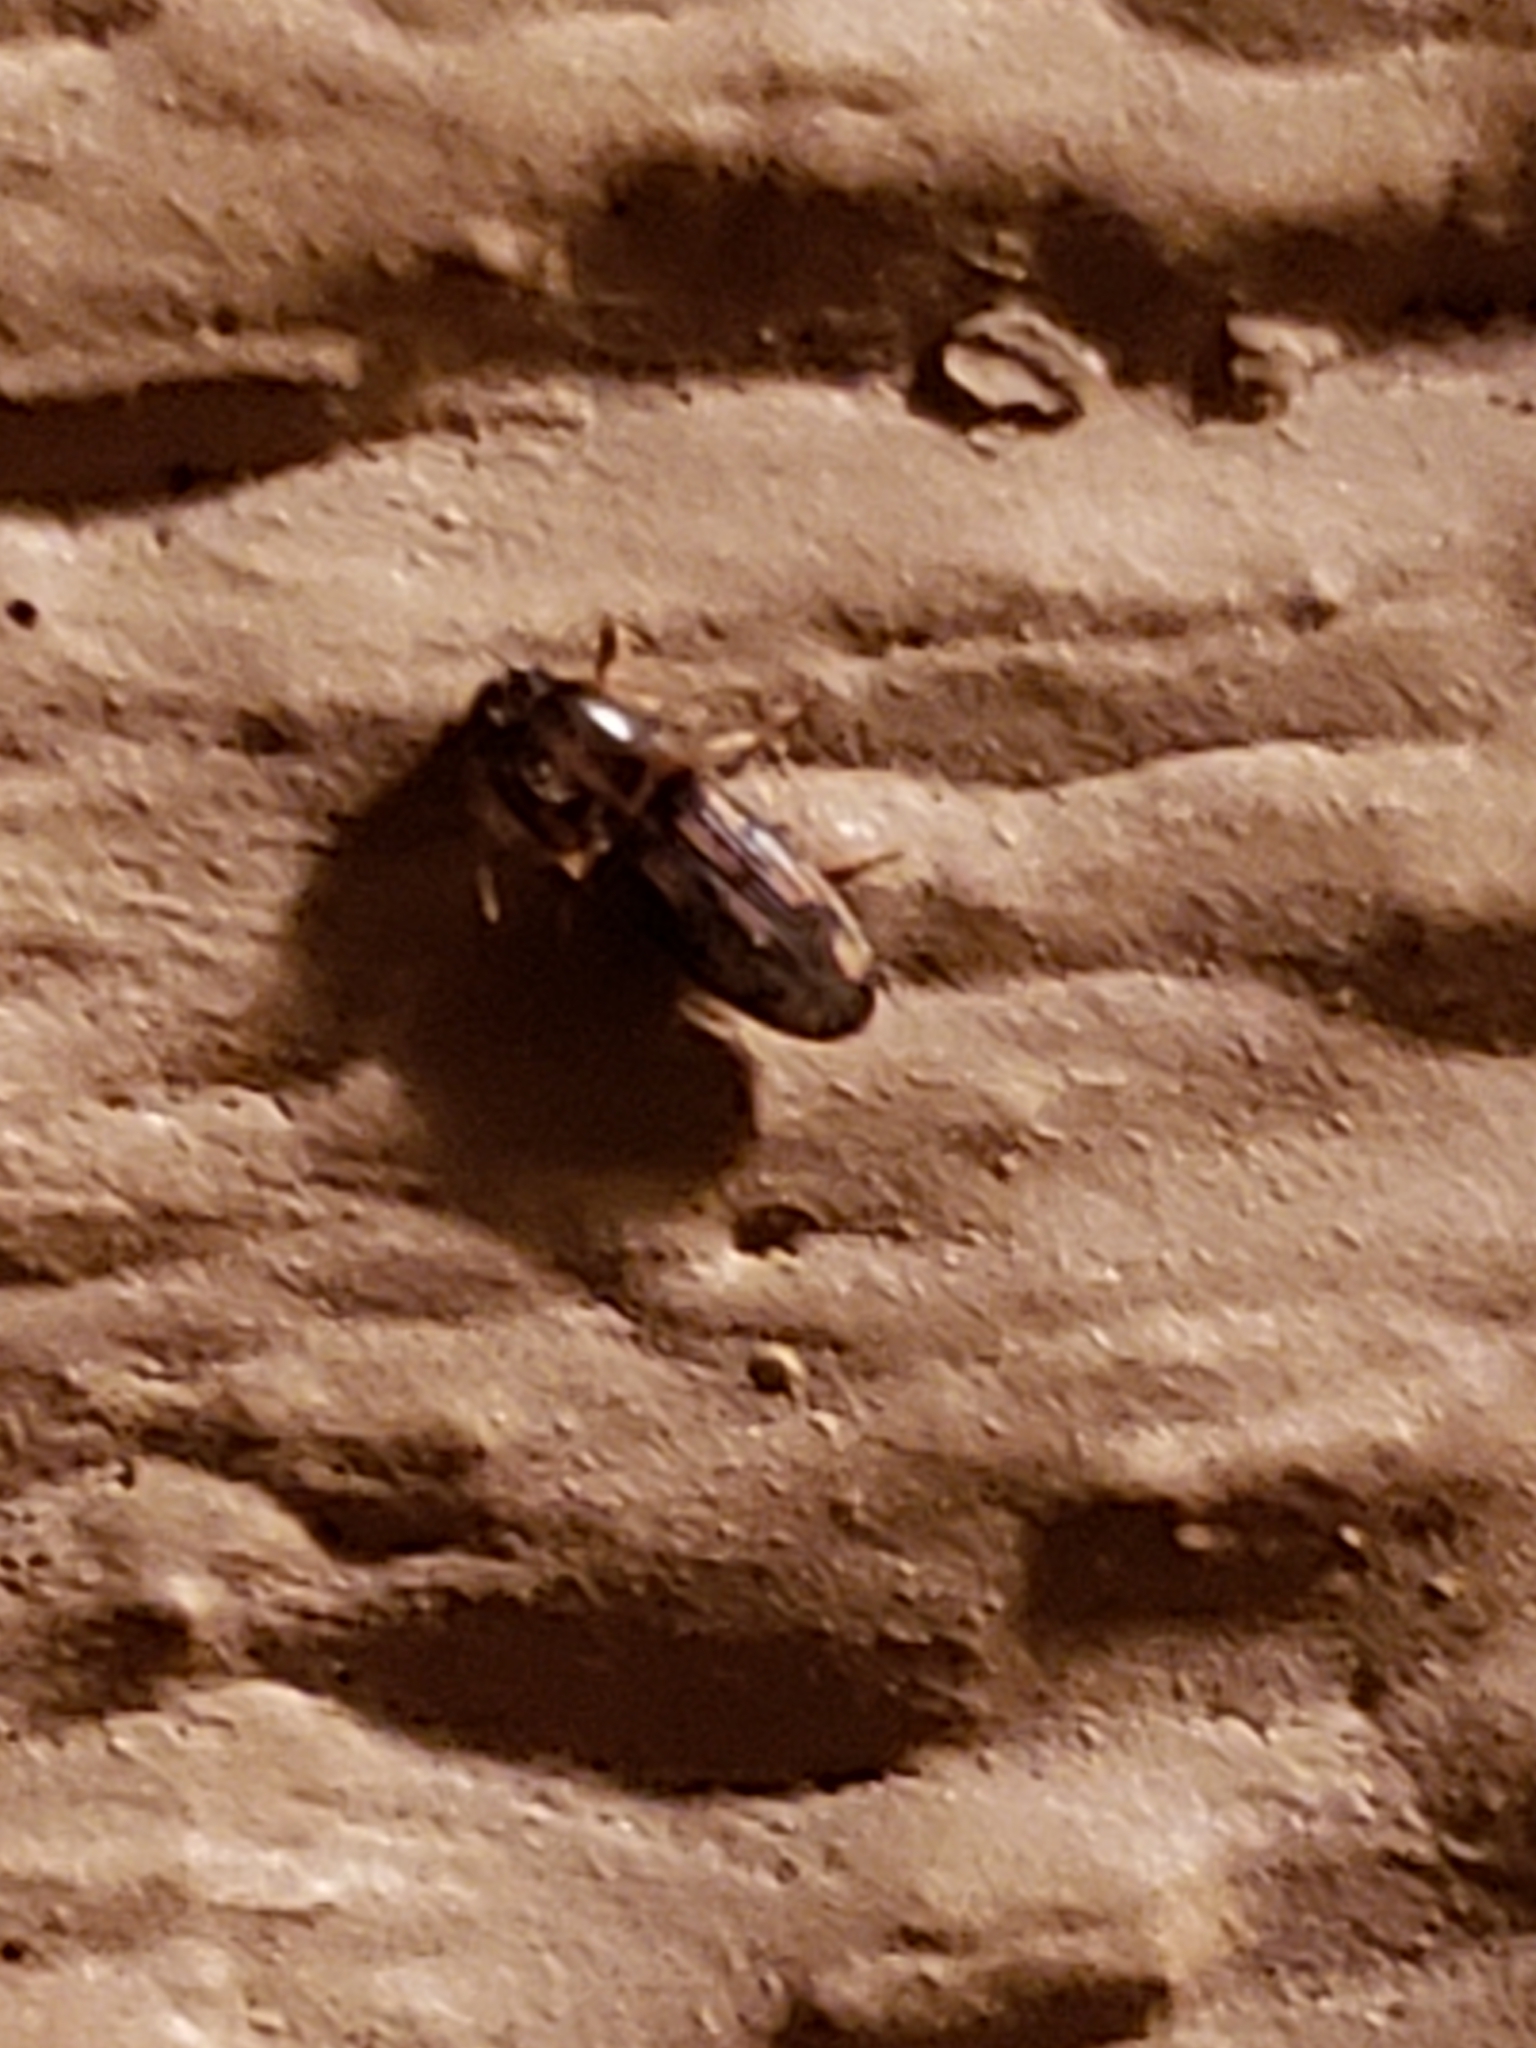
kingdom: Animalia
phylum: Arthropoda
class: Insecta
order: Coleoptera
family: Elateridae
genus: Monocrepidius
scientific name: Monocrepidius bellus
